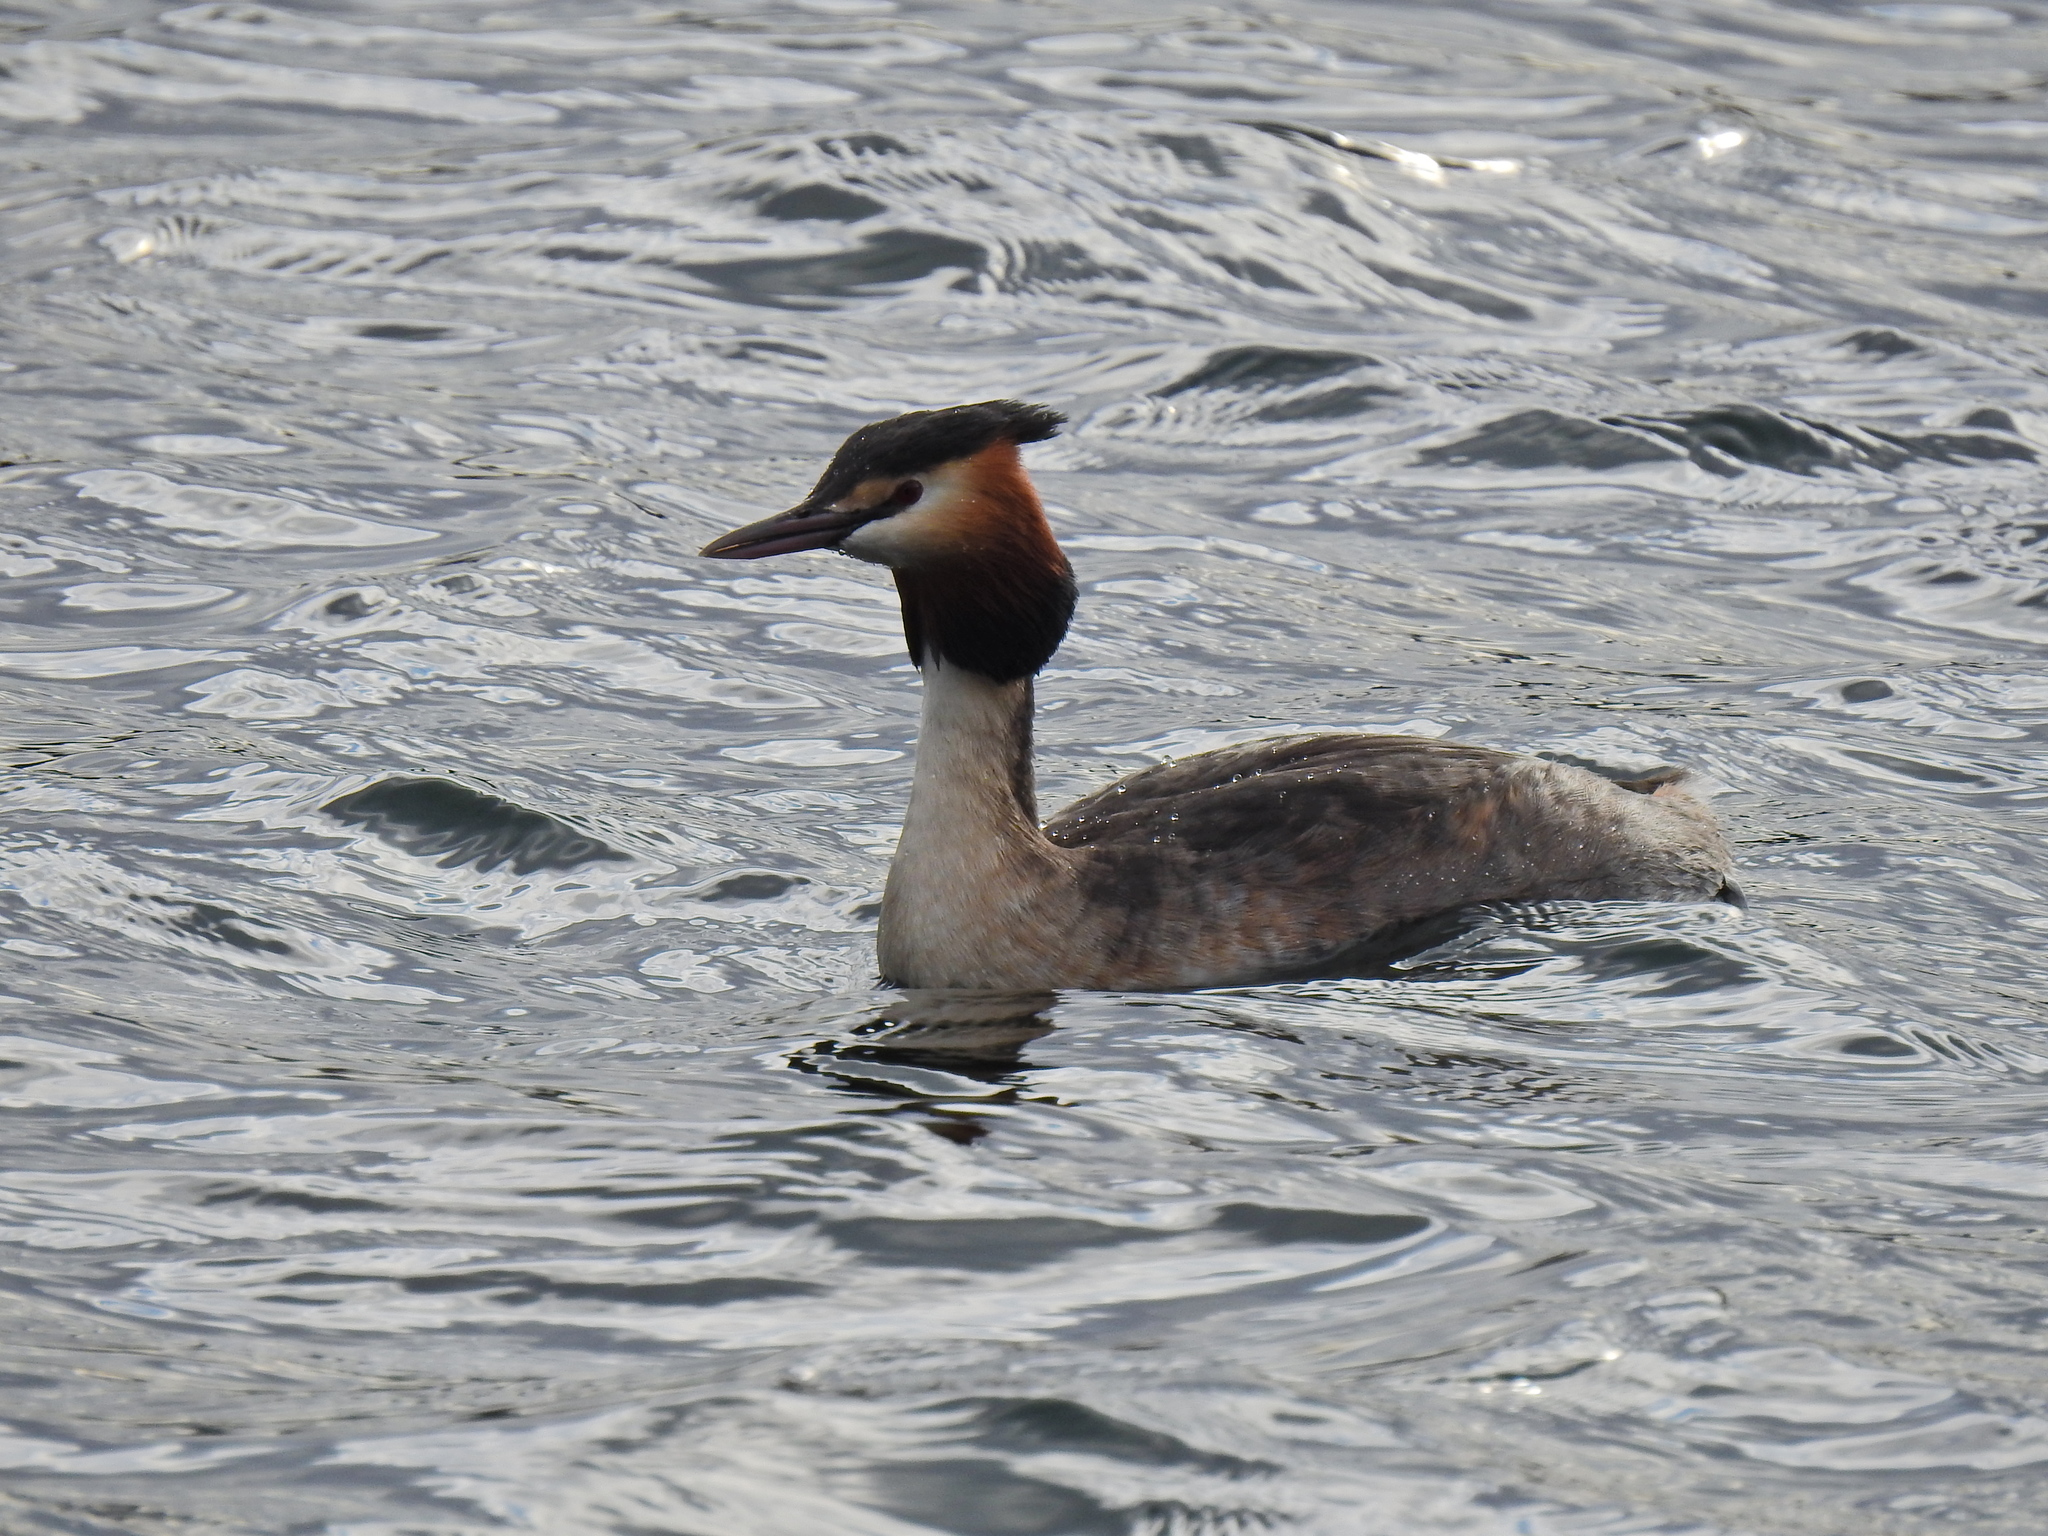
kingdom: Animalia
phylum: Chordata
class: Aves
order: Podicipediformes
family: Podicipedidae
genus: Podiceps
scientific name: Podiceps cristatus
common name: Great crested grebe
